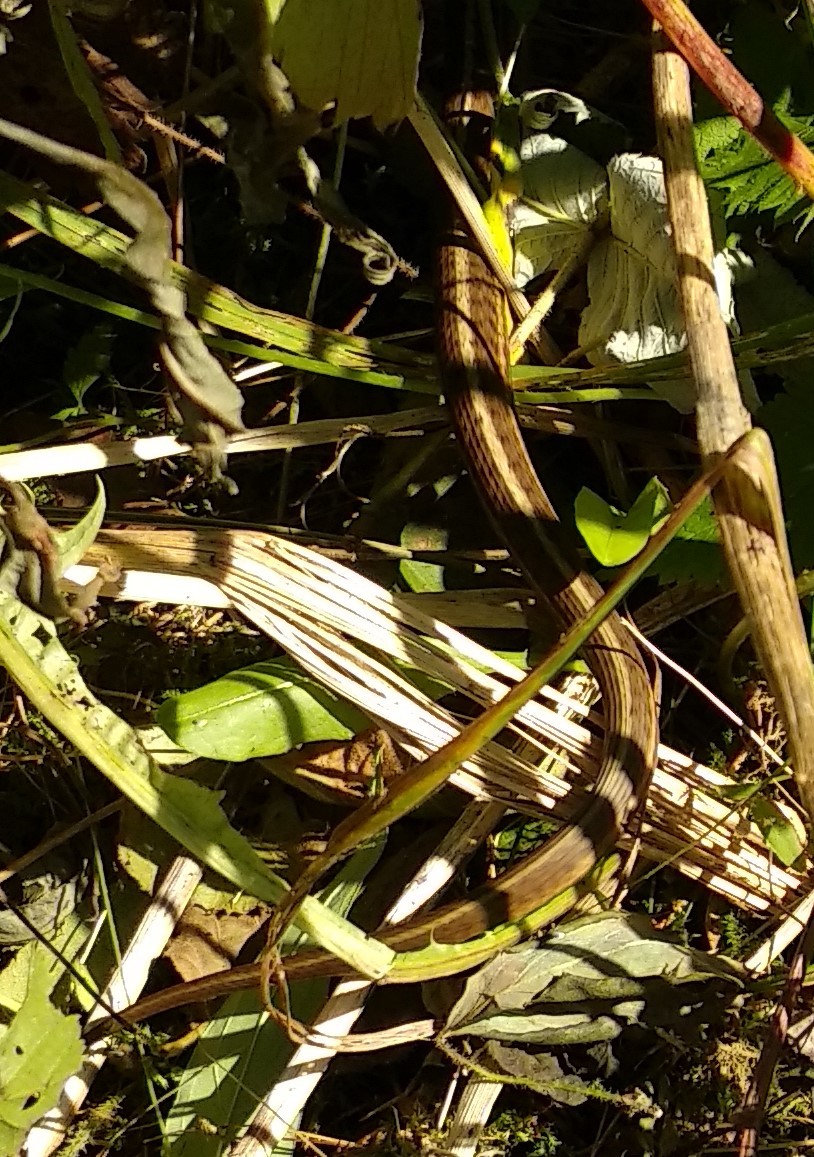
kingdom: Animalia
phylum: Chordata
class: Squamata
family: Colubridae
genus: Thamnophis
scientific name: Thamnophis sirtalis
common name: Common garter snake
